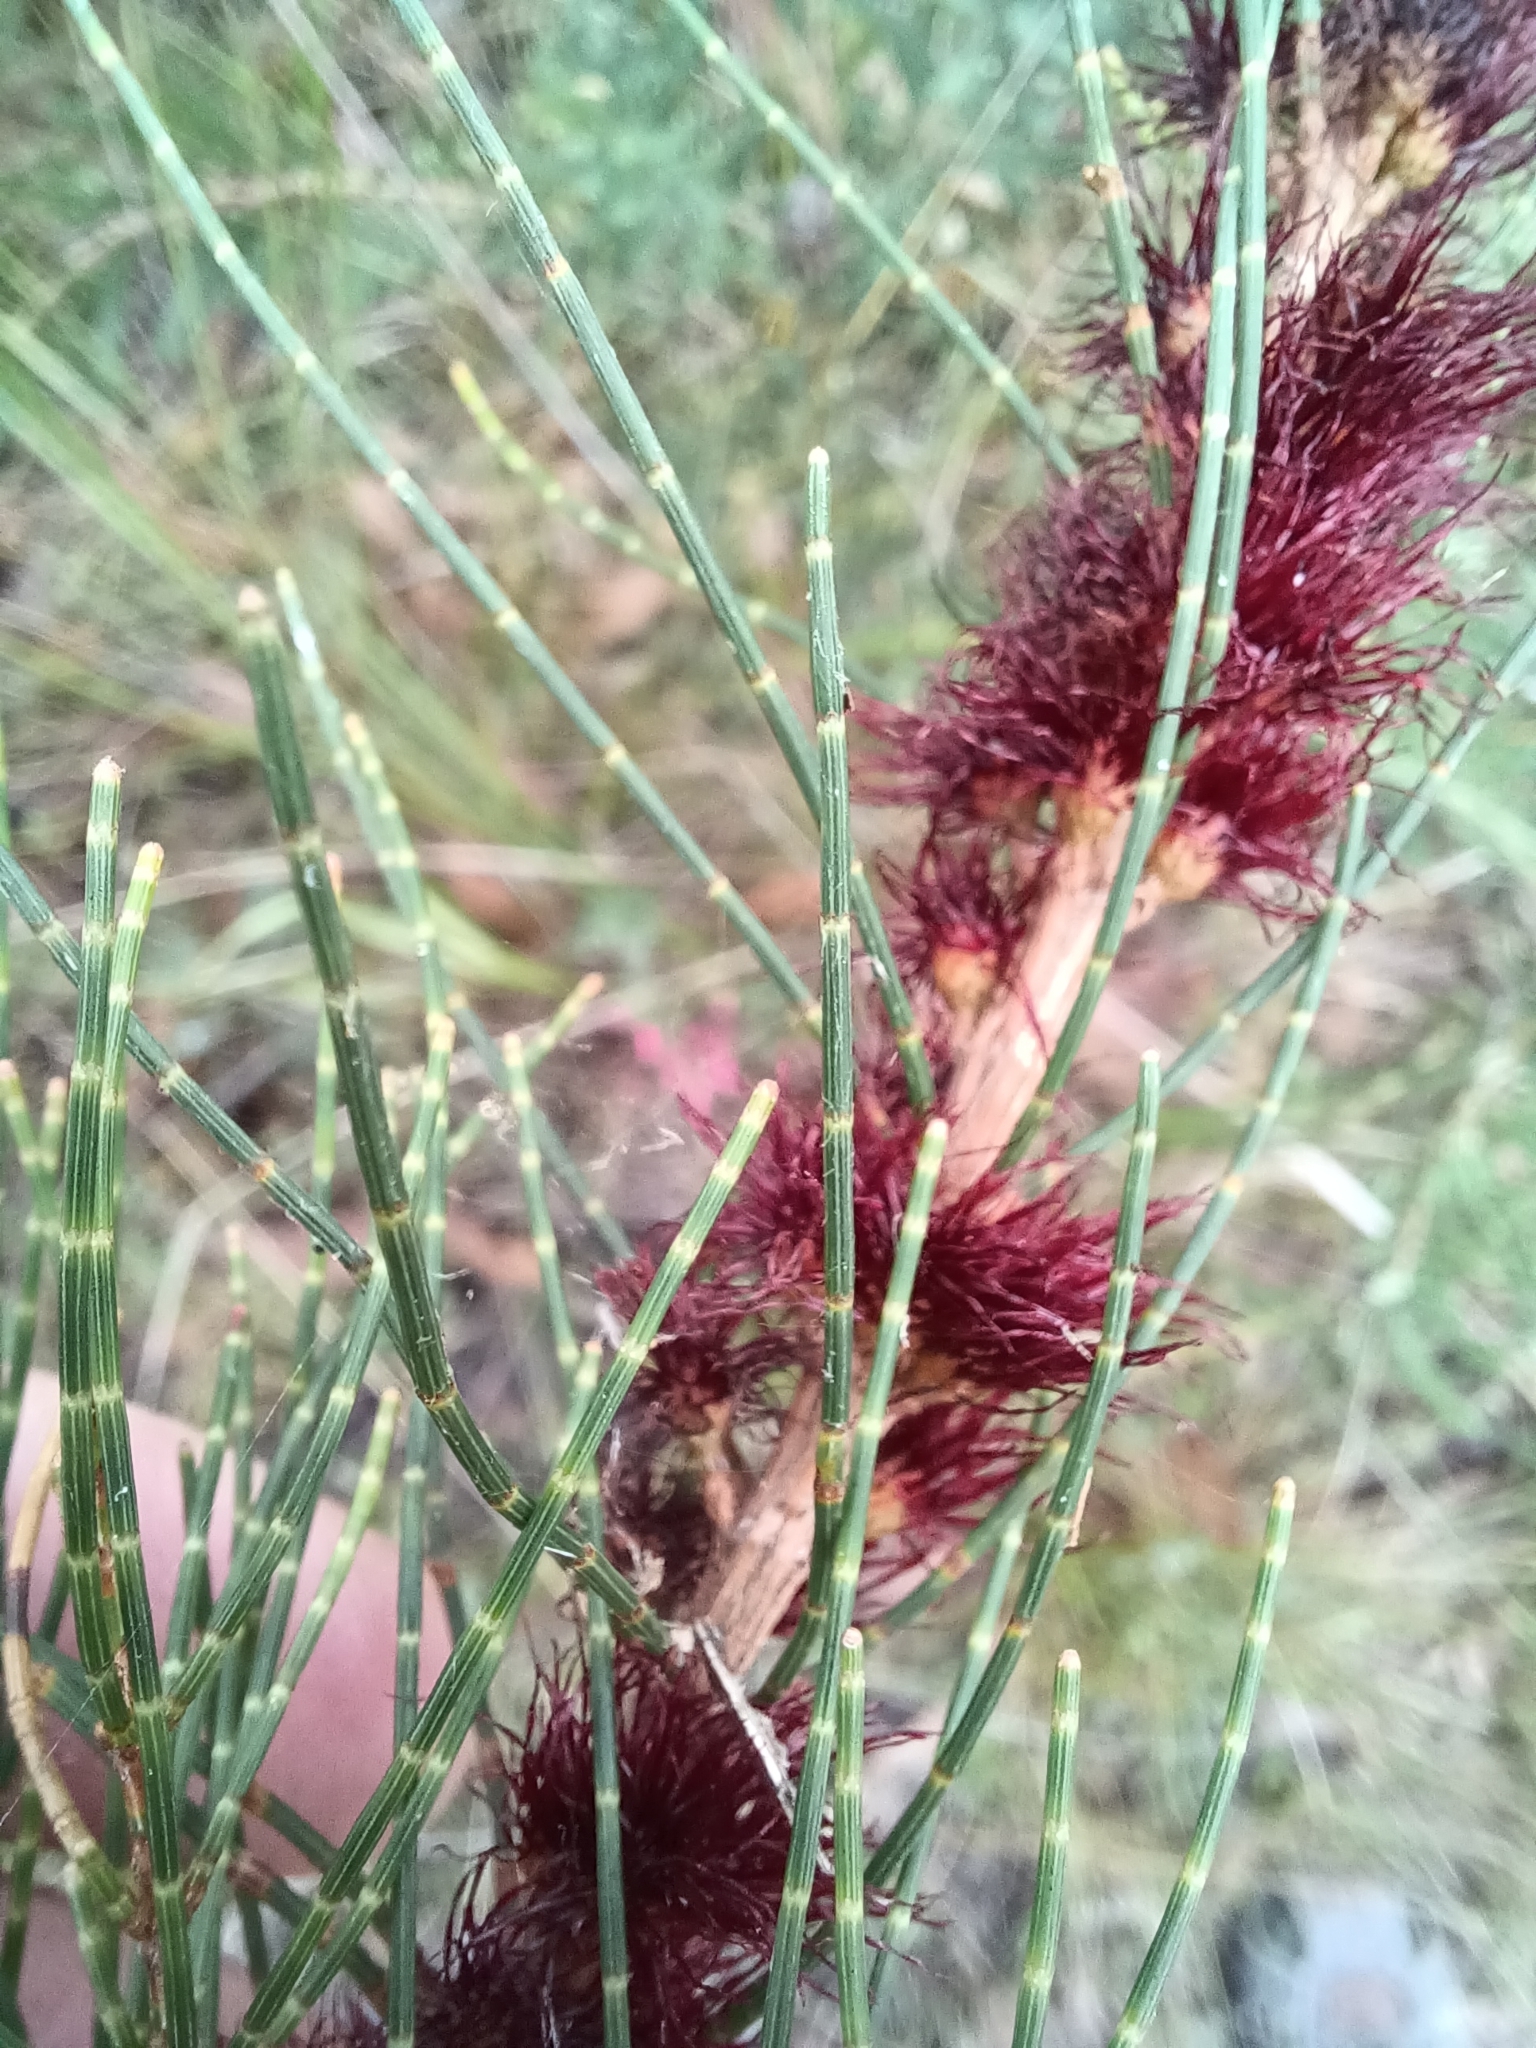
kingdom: Plantae
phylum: Tracheophyta
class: Magnoliopsida
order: Fagales
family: Casuarinaceae
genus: Allocasuarina
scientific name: Allocasuarina misera
